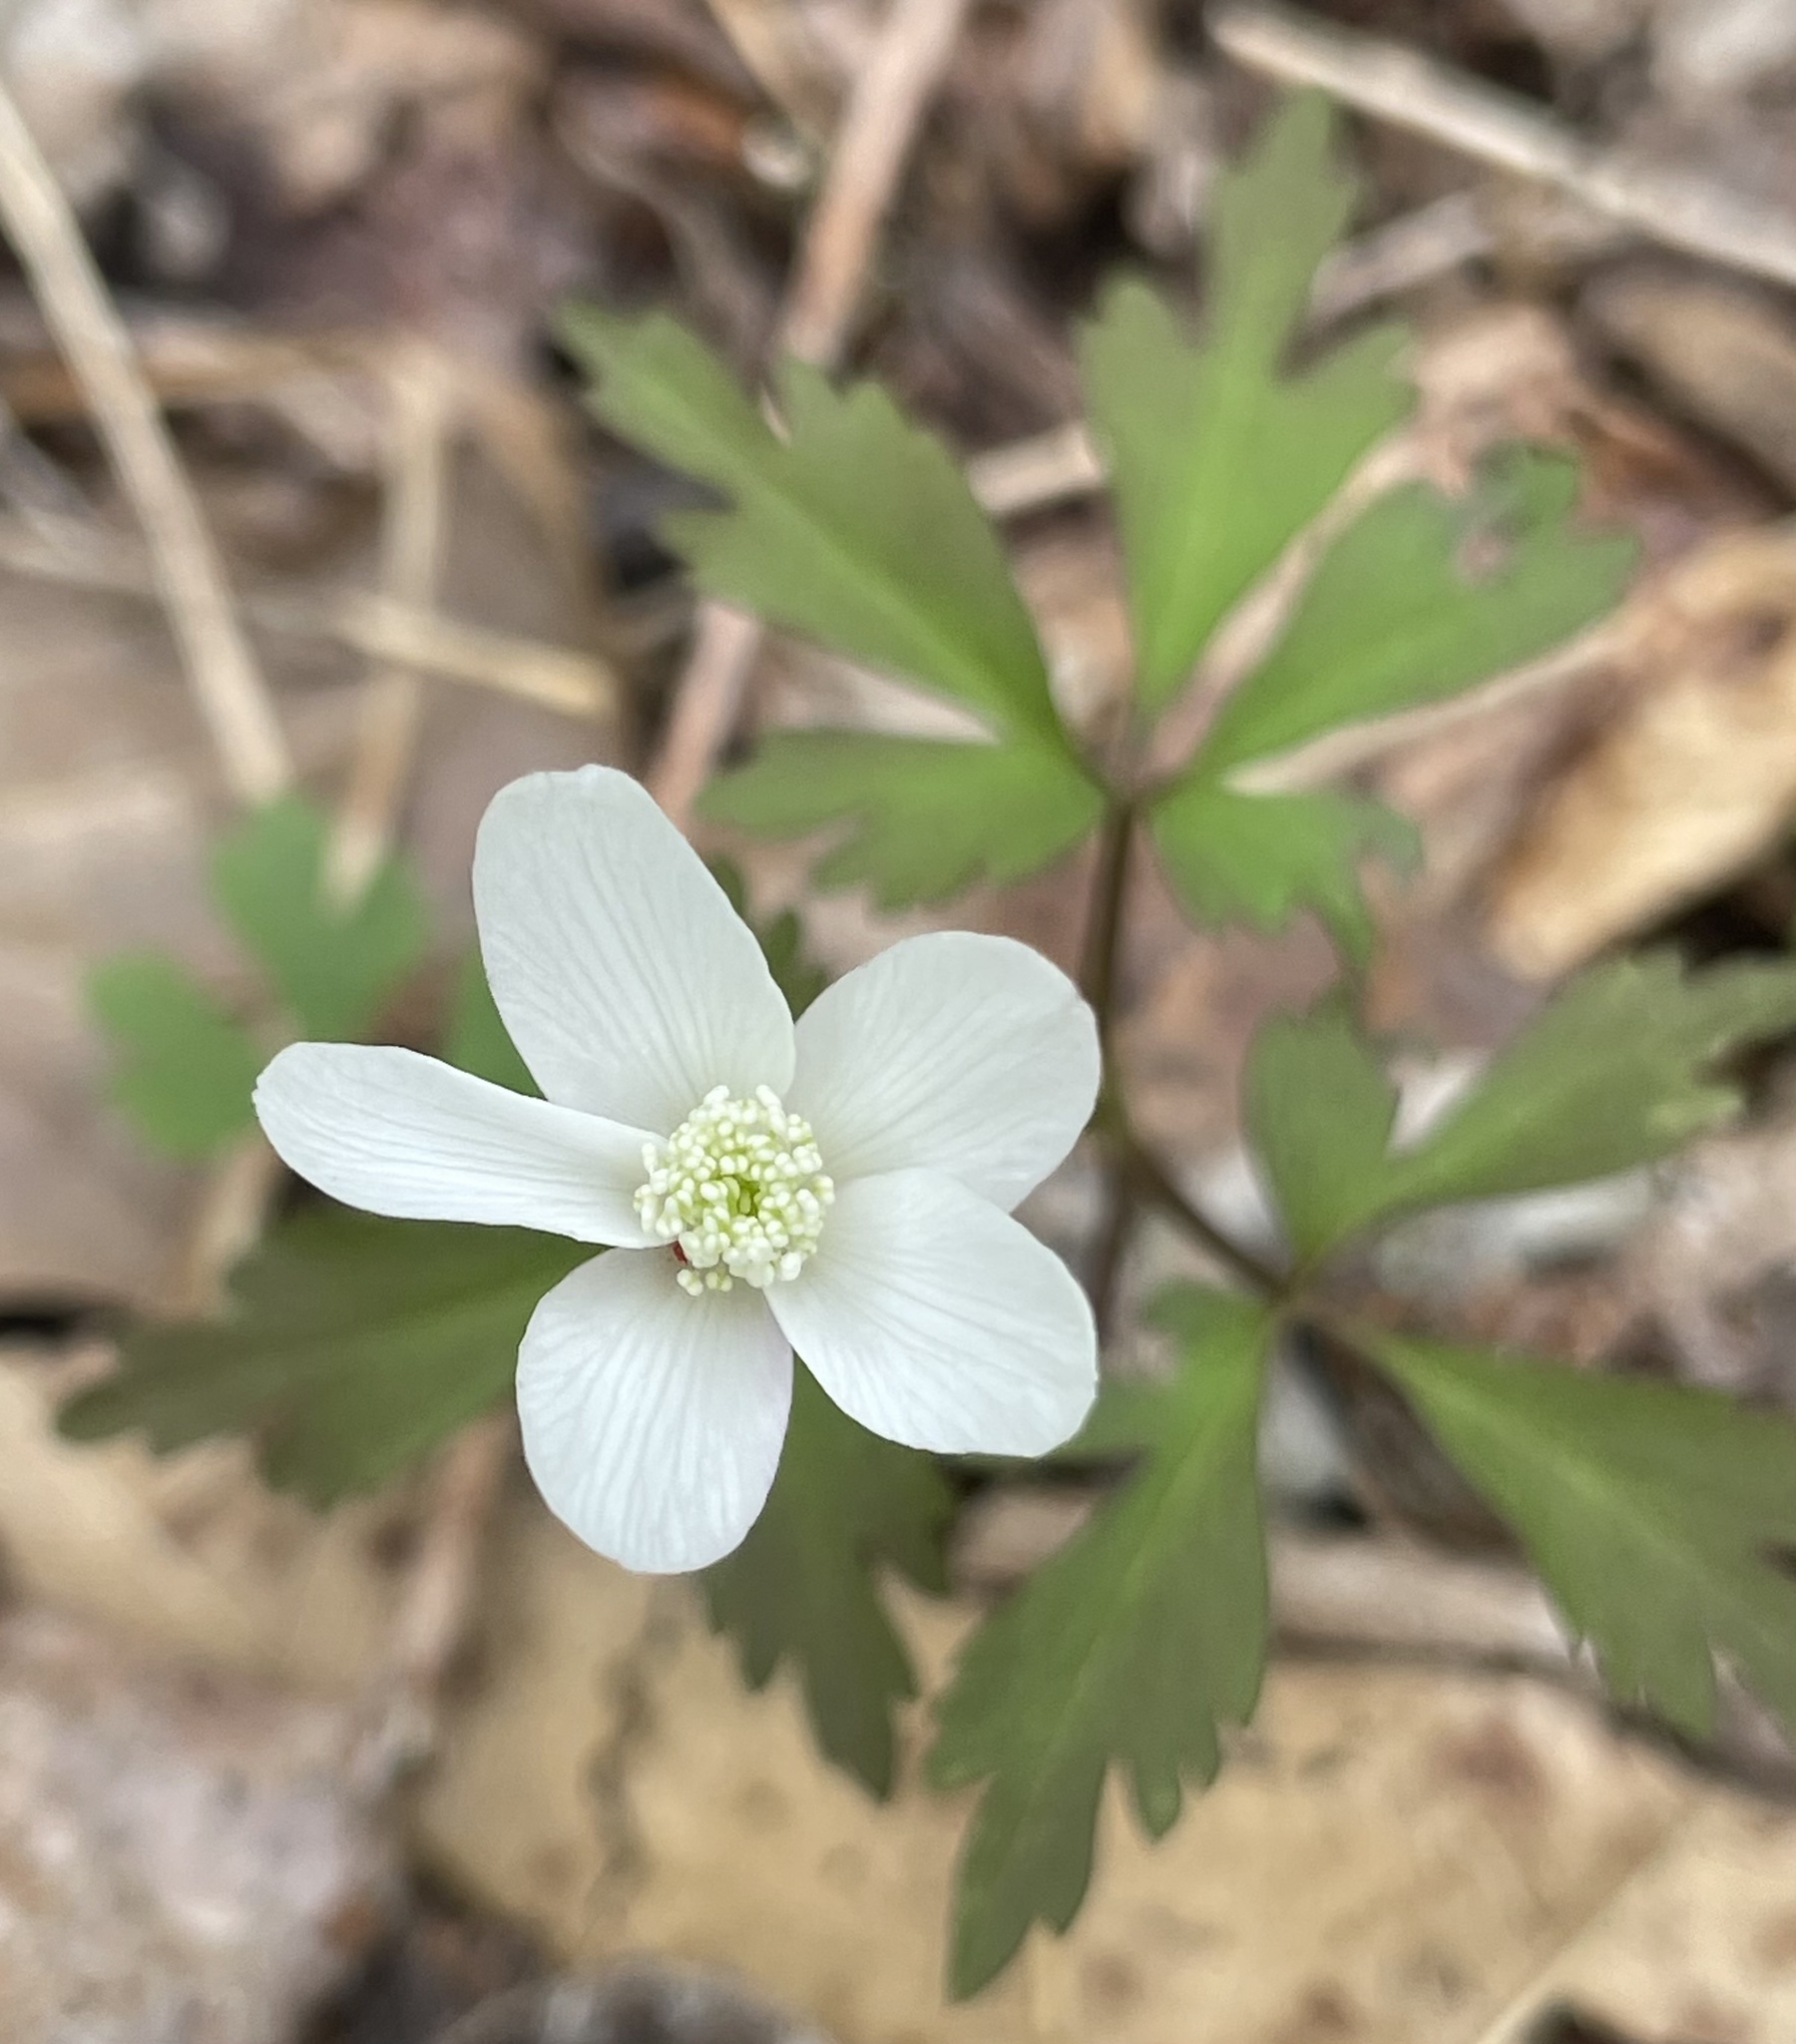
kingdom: Plantae
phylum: Tracheophyta
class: Magnoliopsida
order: Ranunculales
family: Ranunculaceae
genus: Anemone
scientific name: Anemone quinquefolia
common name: Wood anemone
